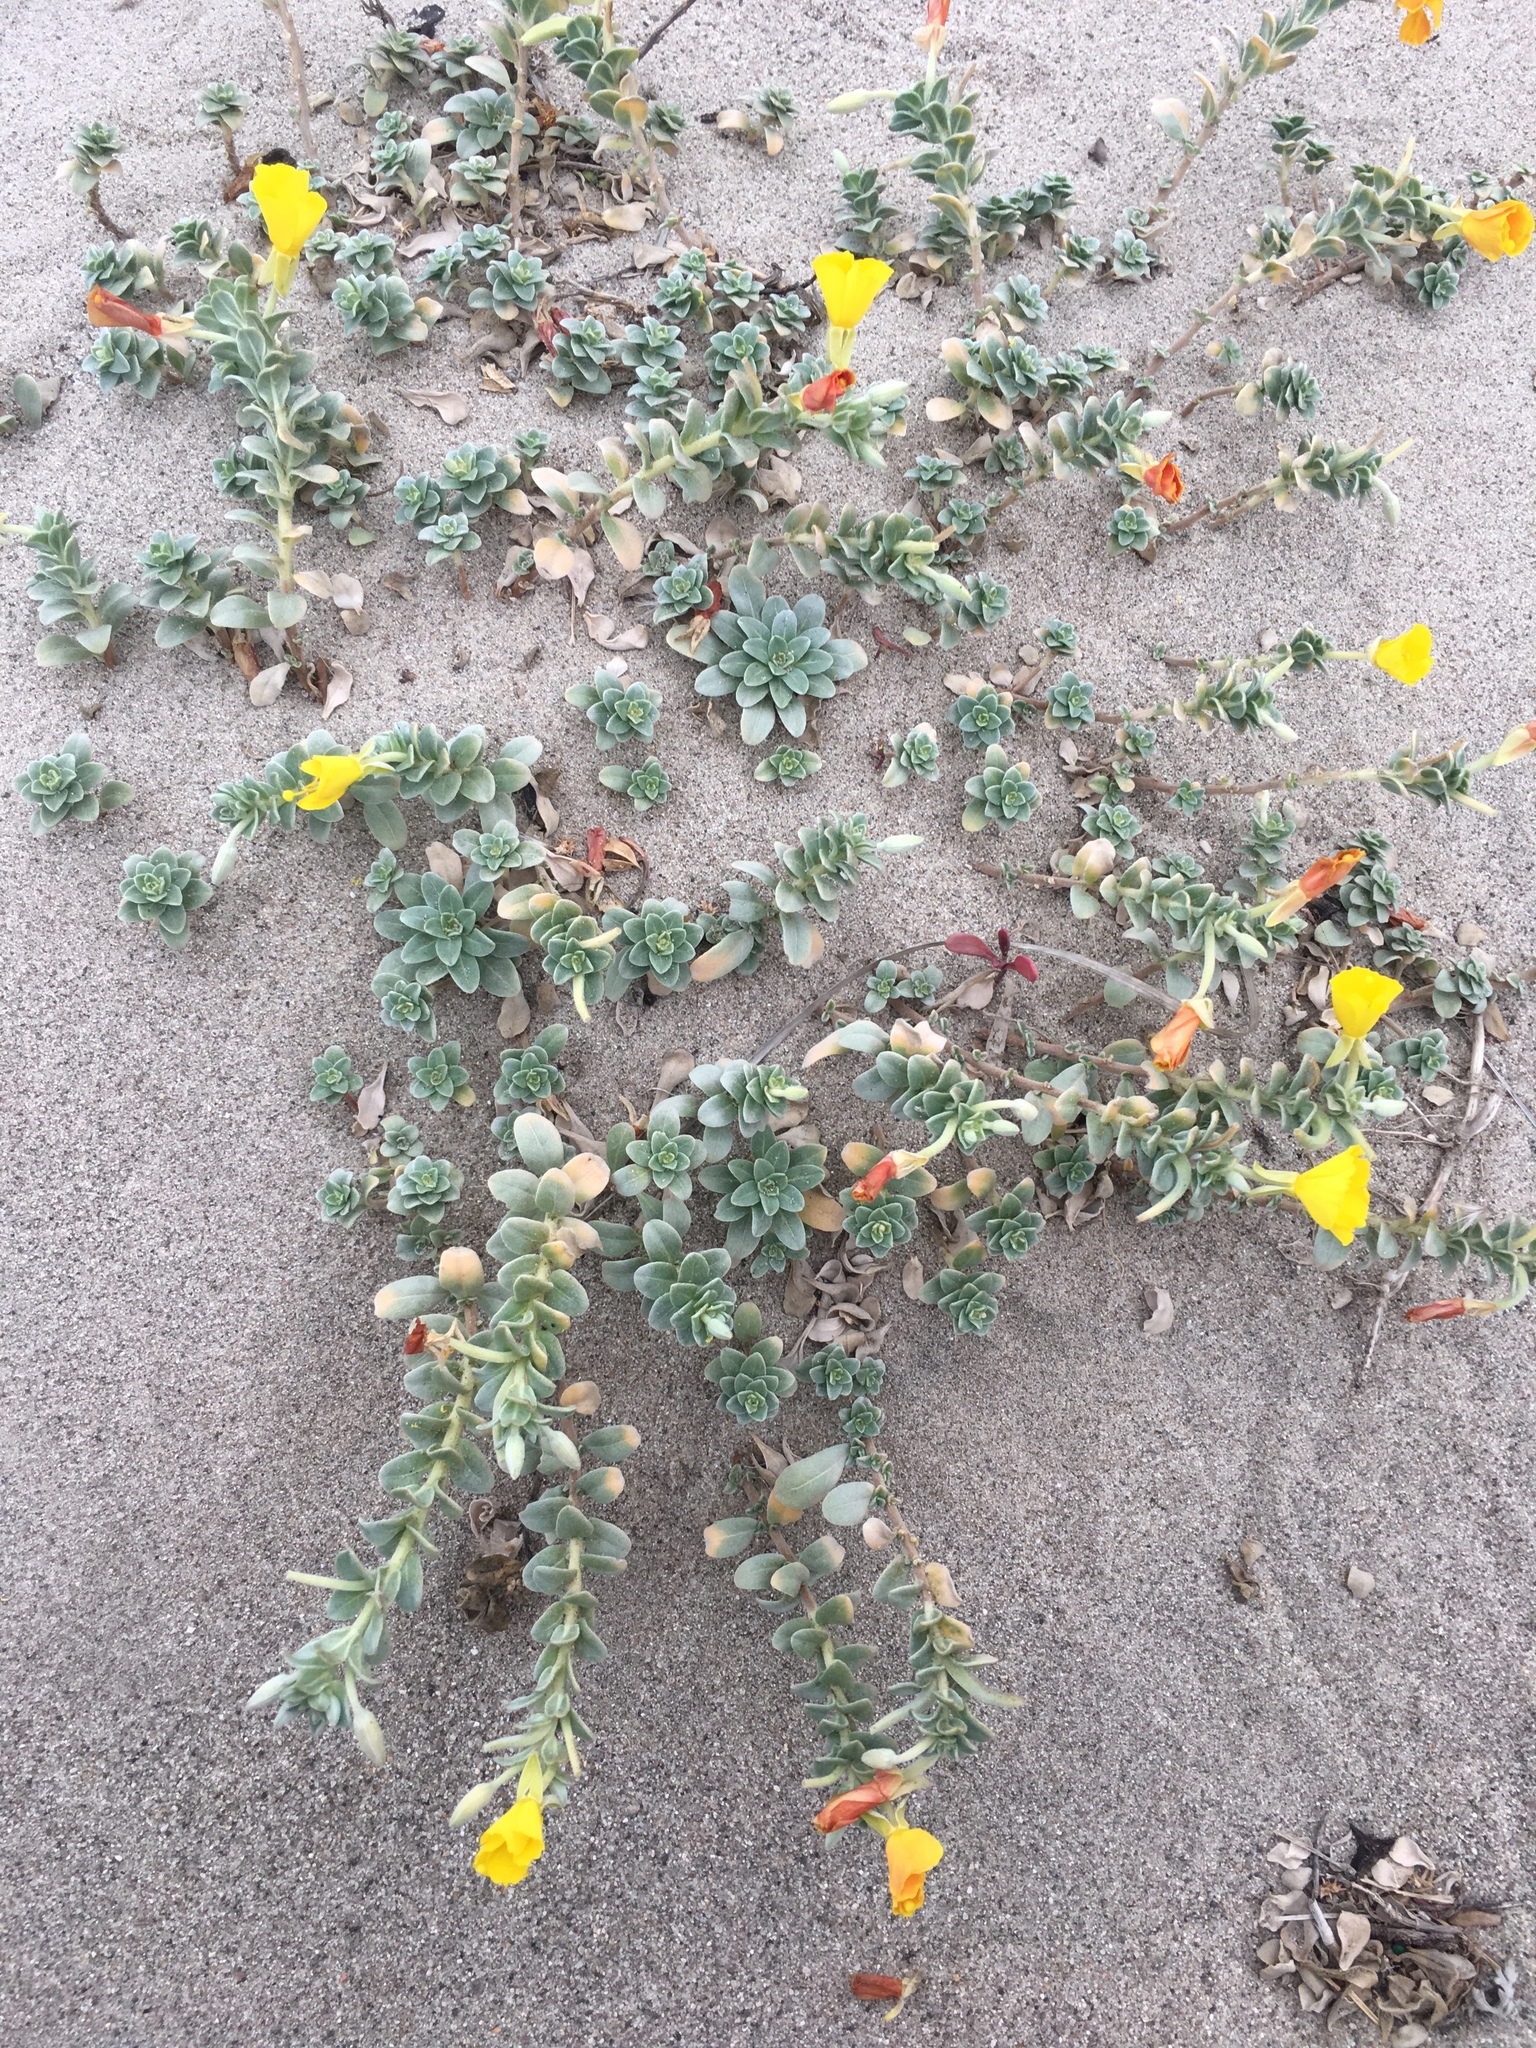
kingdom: Plantae
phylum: Tracheophyta
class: Magnoliopsida
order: Myrtales
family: Onagraceae
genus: Camissoniopsis
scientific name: Camissoniopsis cheiranthifolia
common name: Beach suncup
